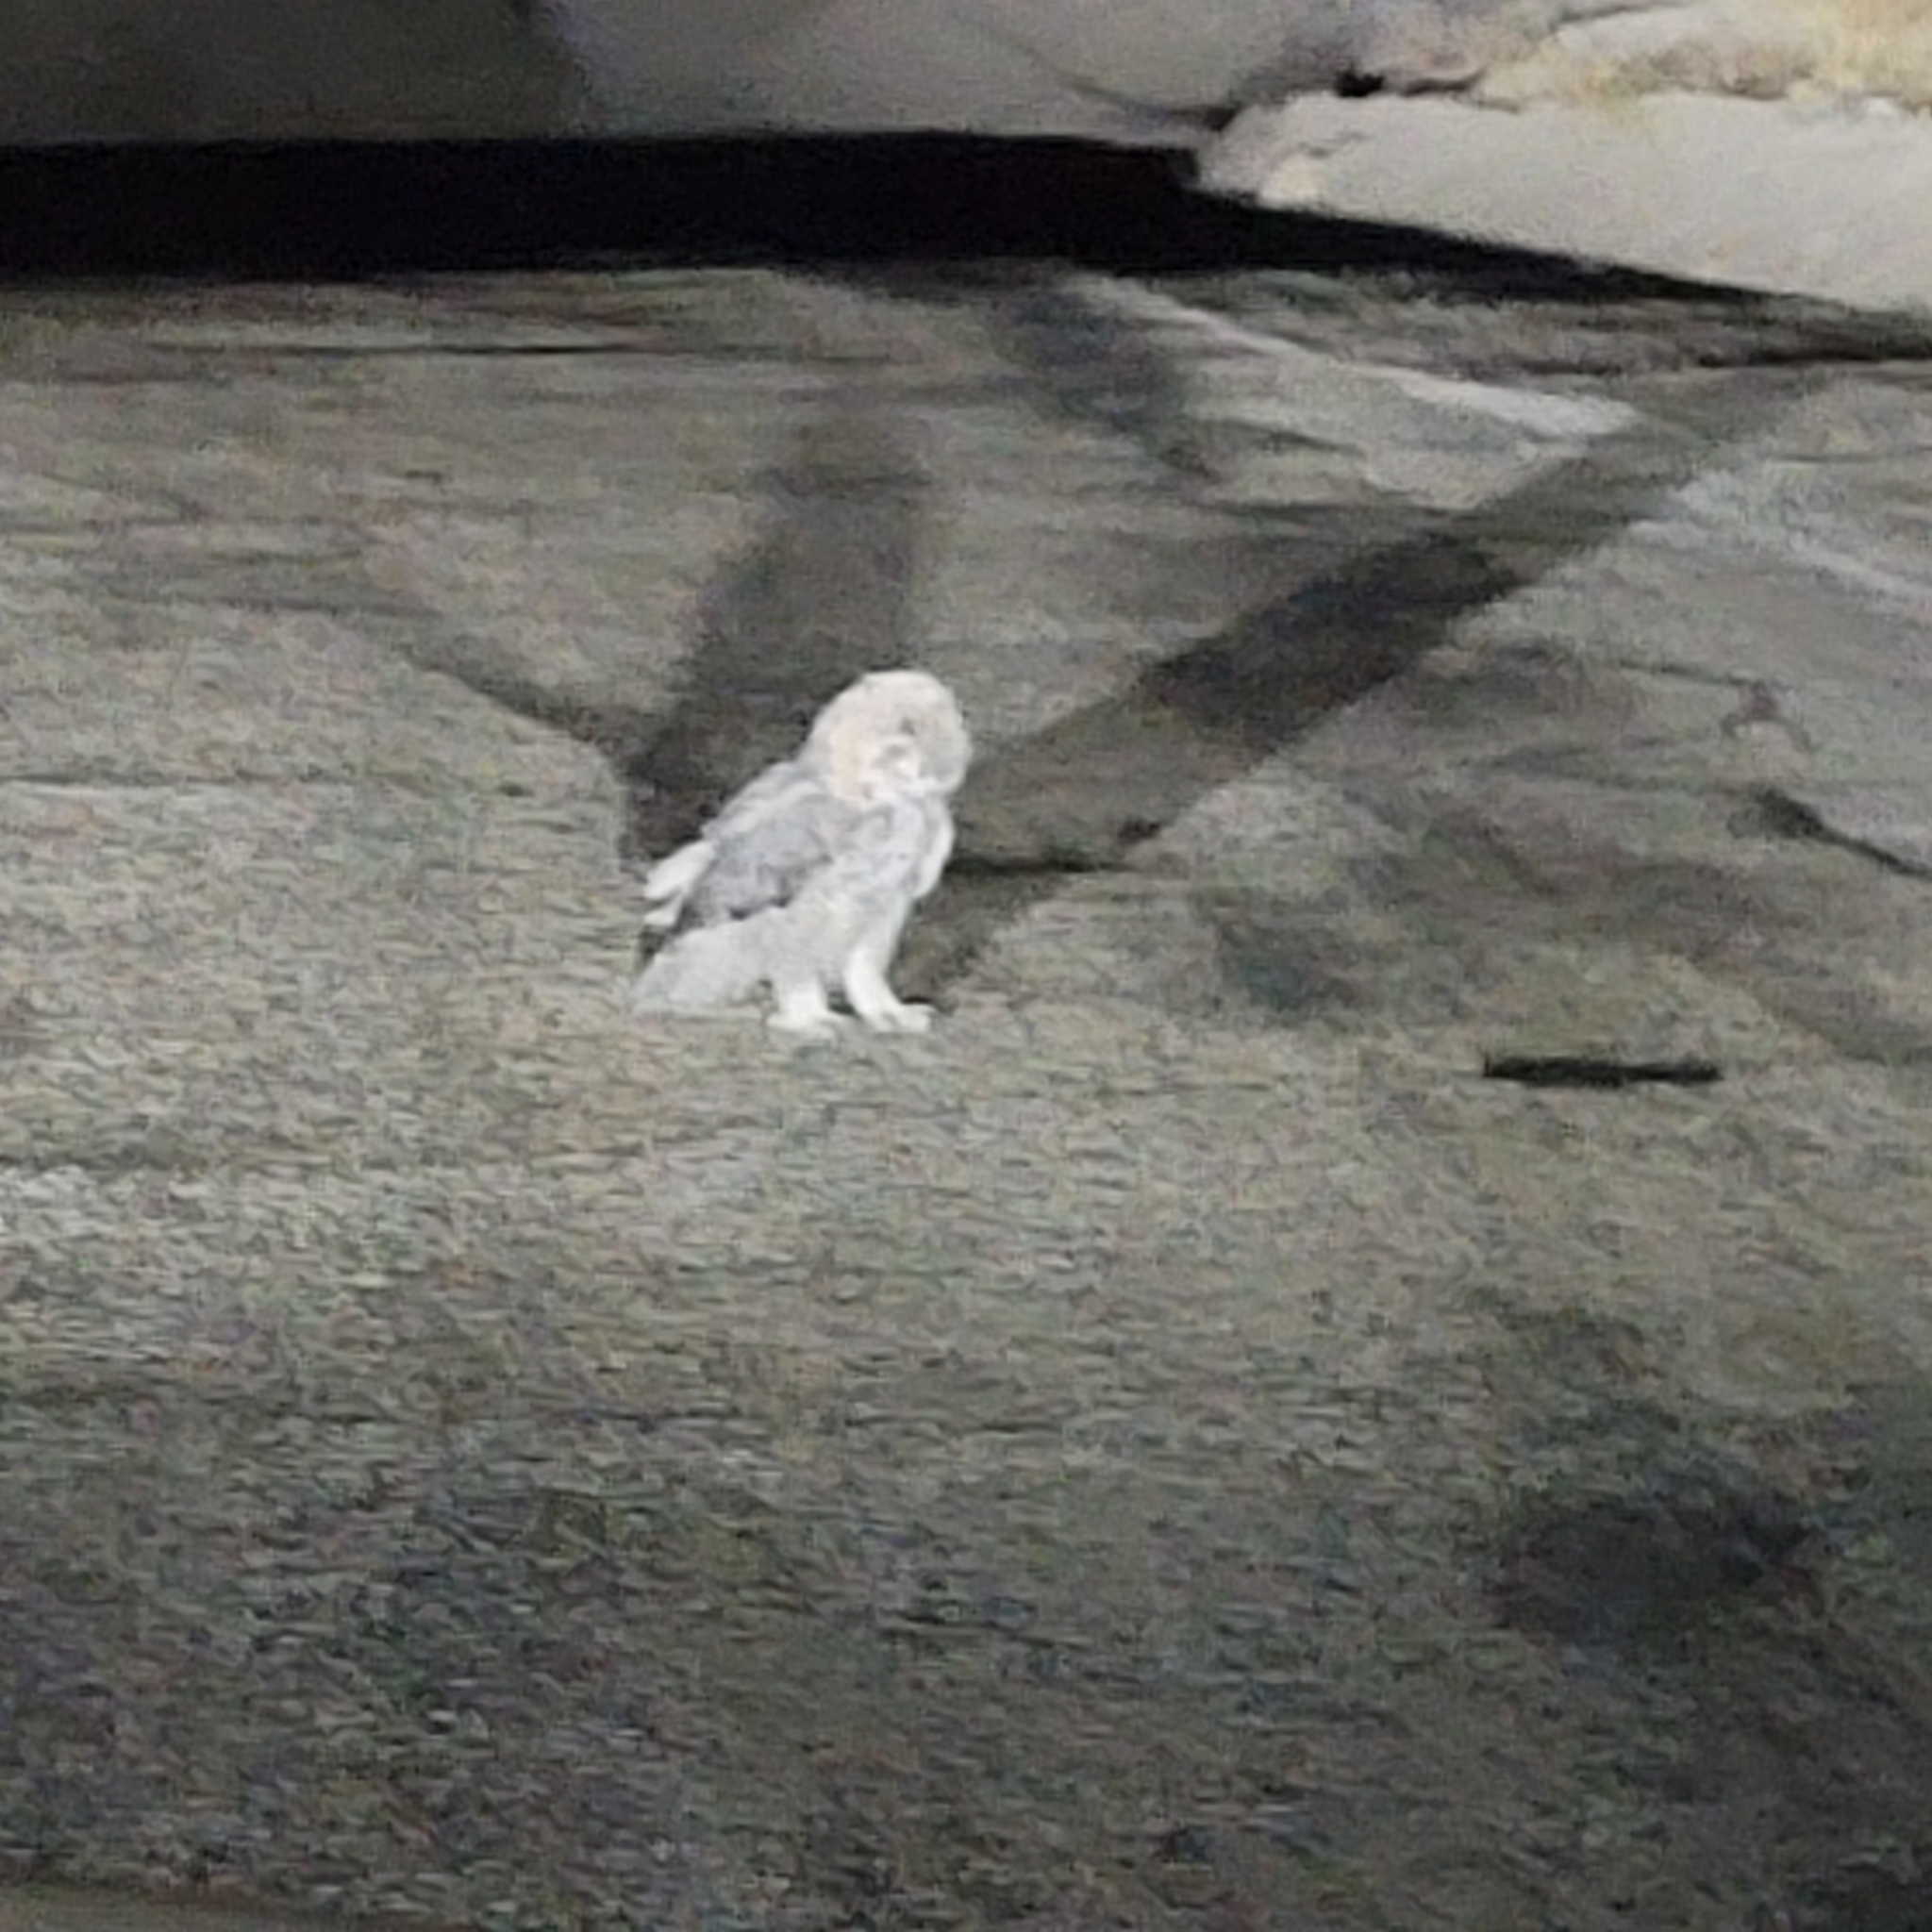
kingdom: Animalia
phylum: Chordata
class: Aves
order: Strigiformes
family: Strigidae
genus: Bubo
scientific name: Bubo virginianus
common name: Great horned owl
